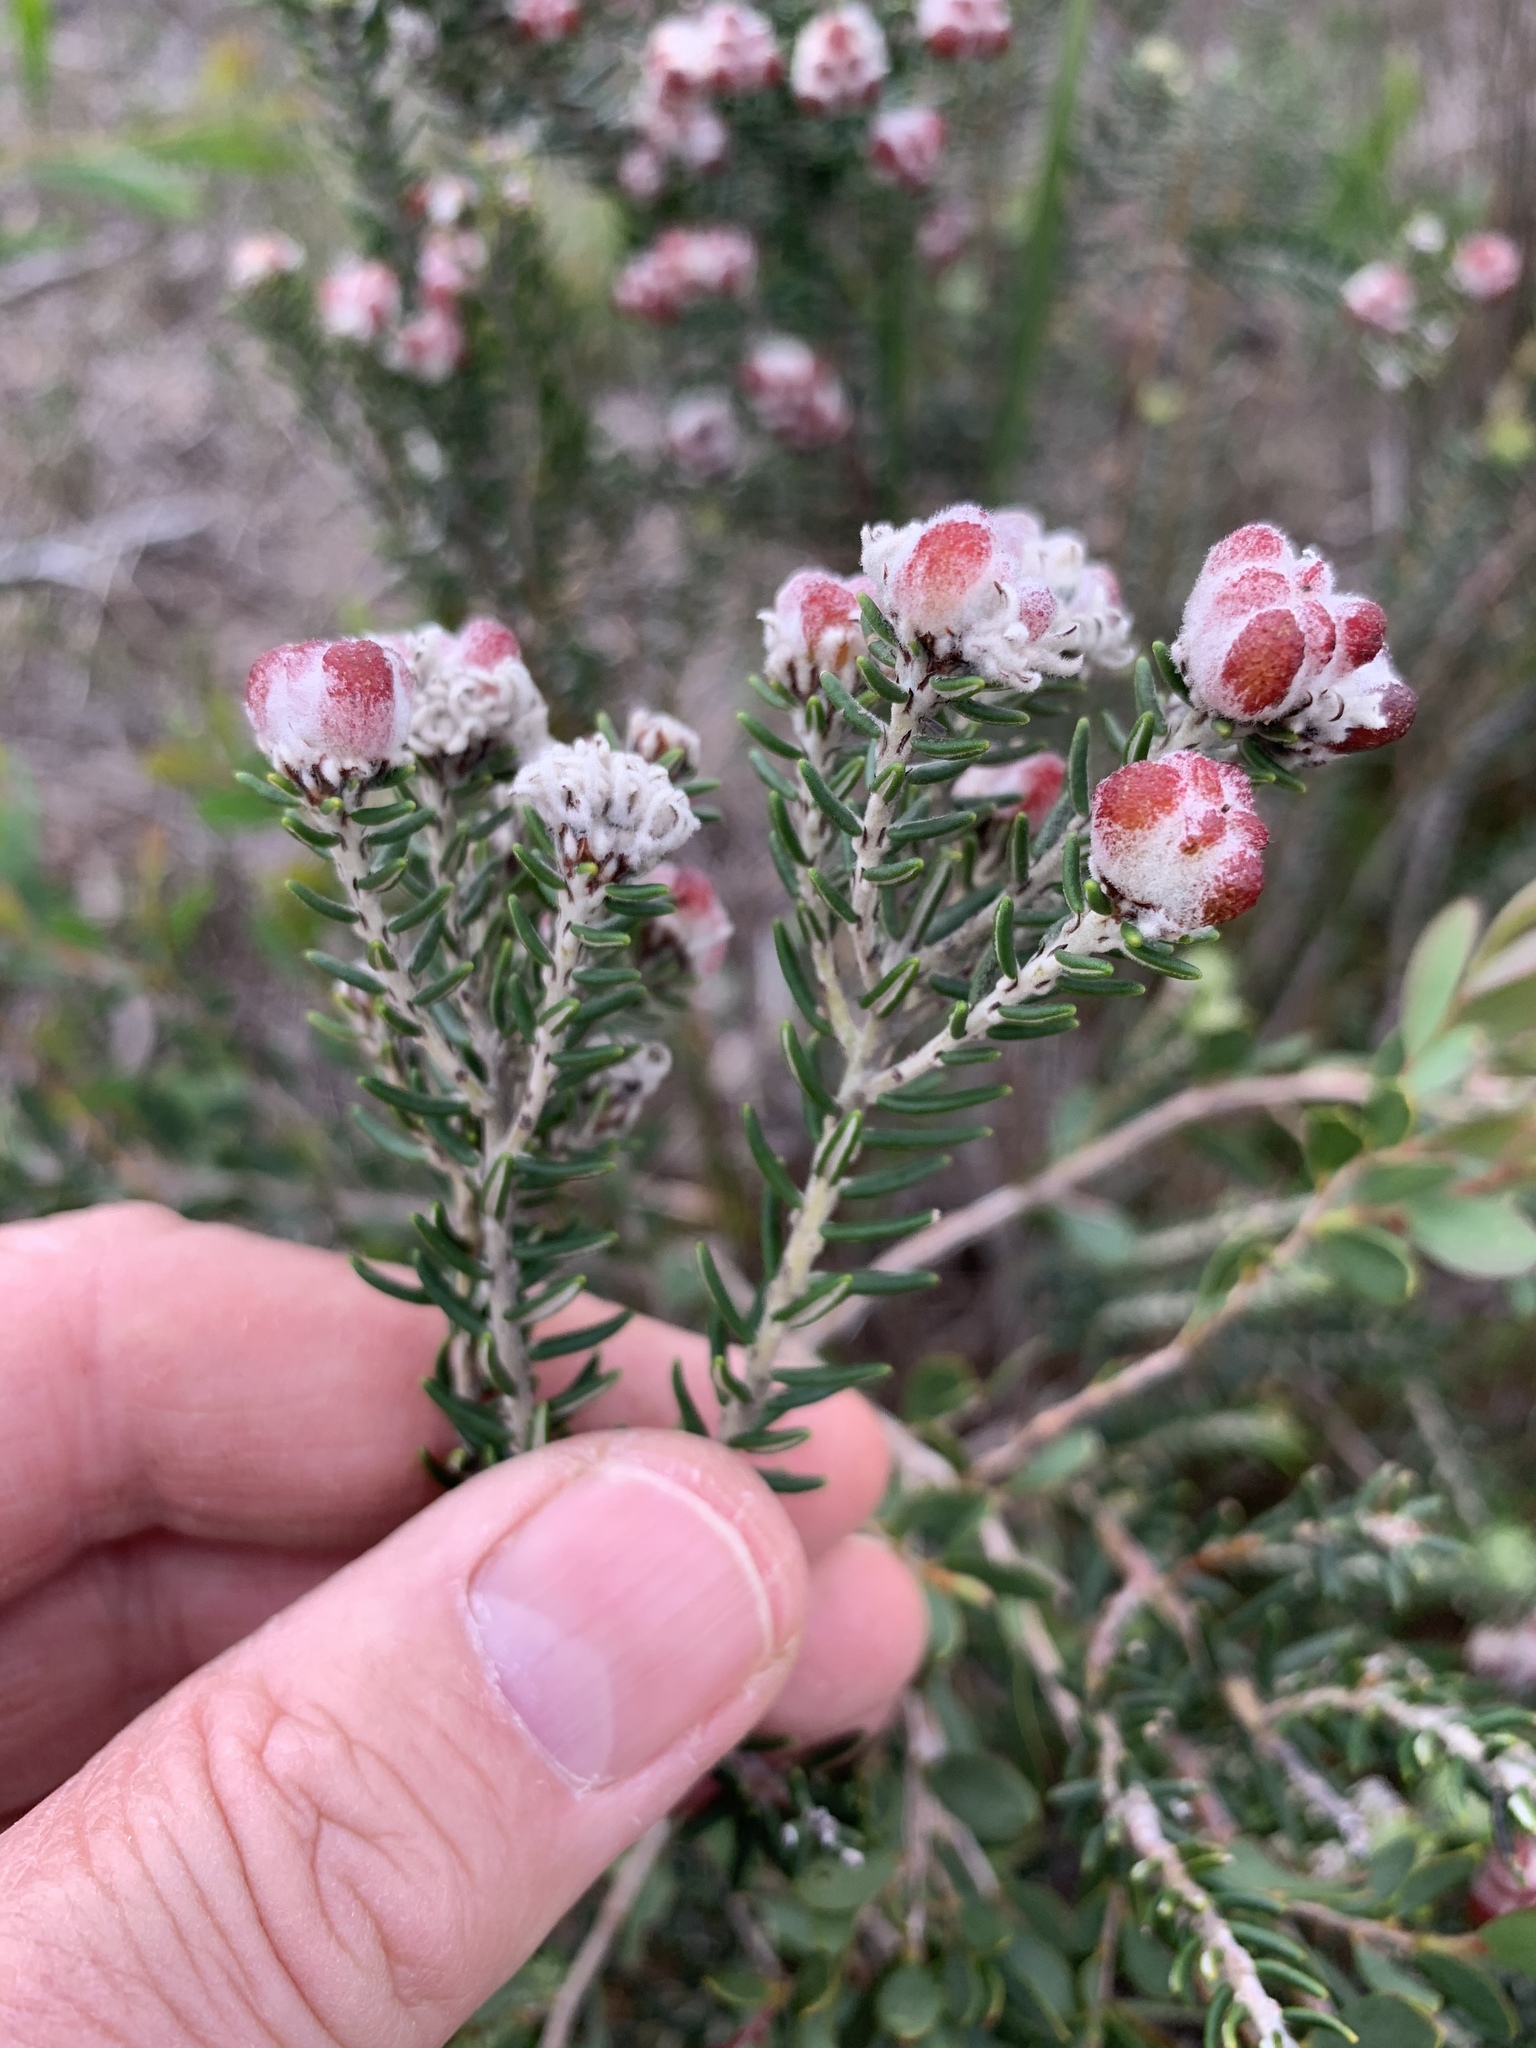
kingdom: Plantae
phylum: Tracheophyta
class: Magnoliopsida
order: Rosales
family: Rhamnaceae
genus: Trichocephalus
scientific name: Trichocephalus stipularis
